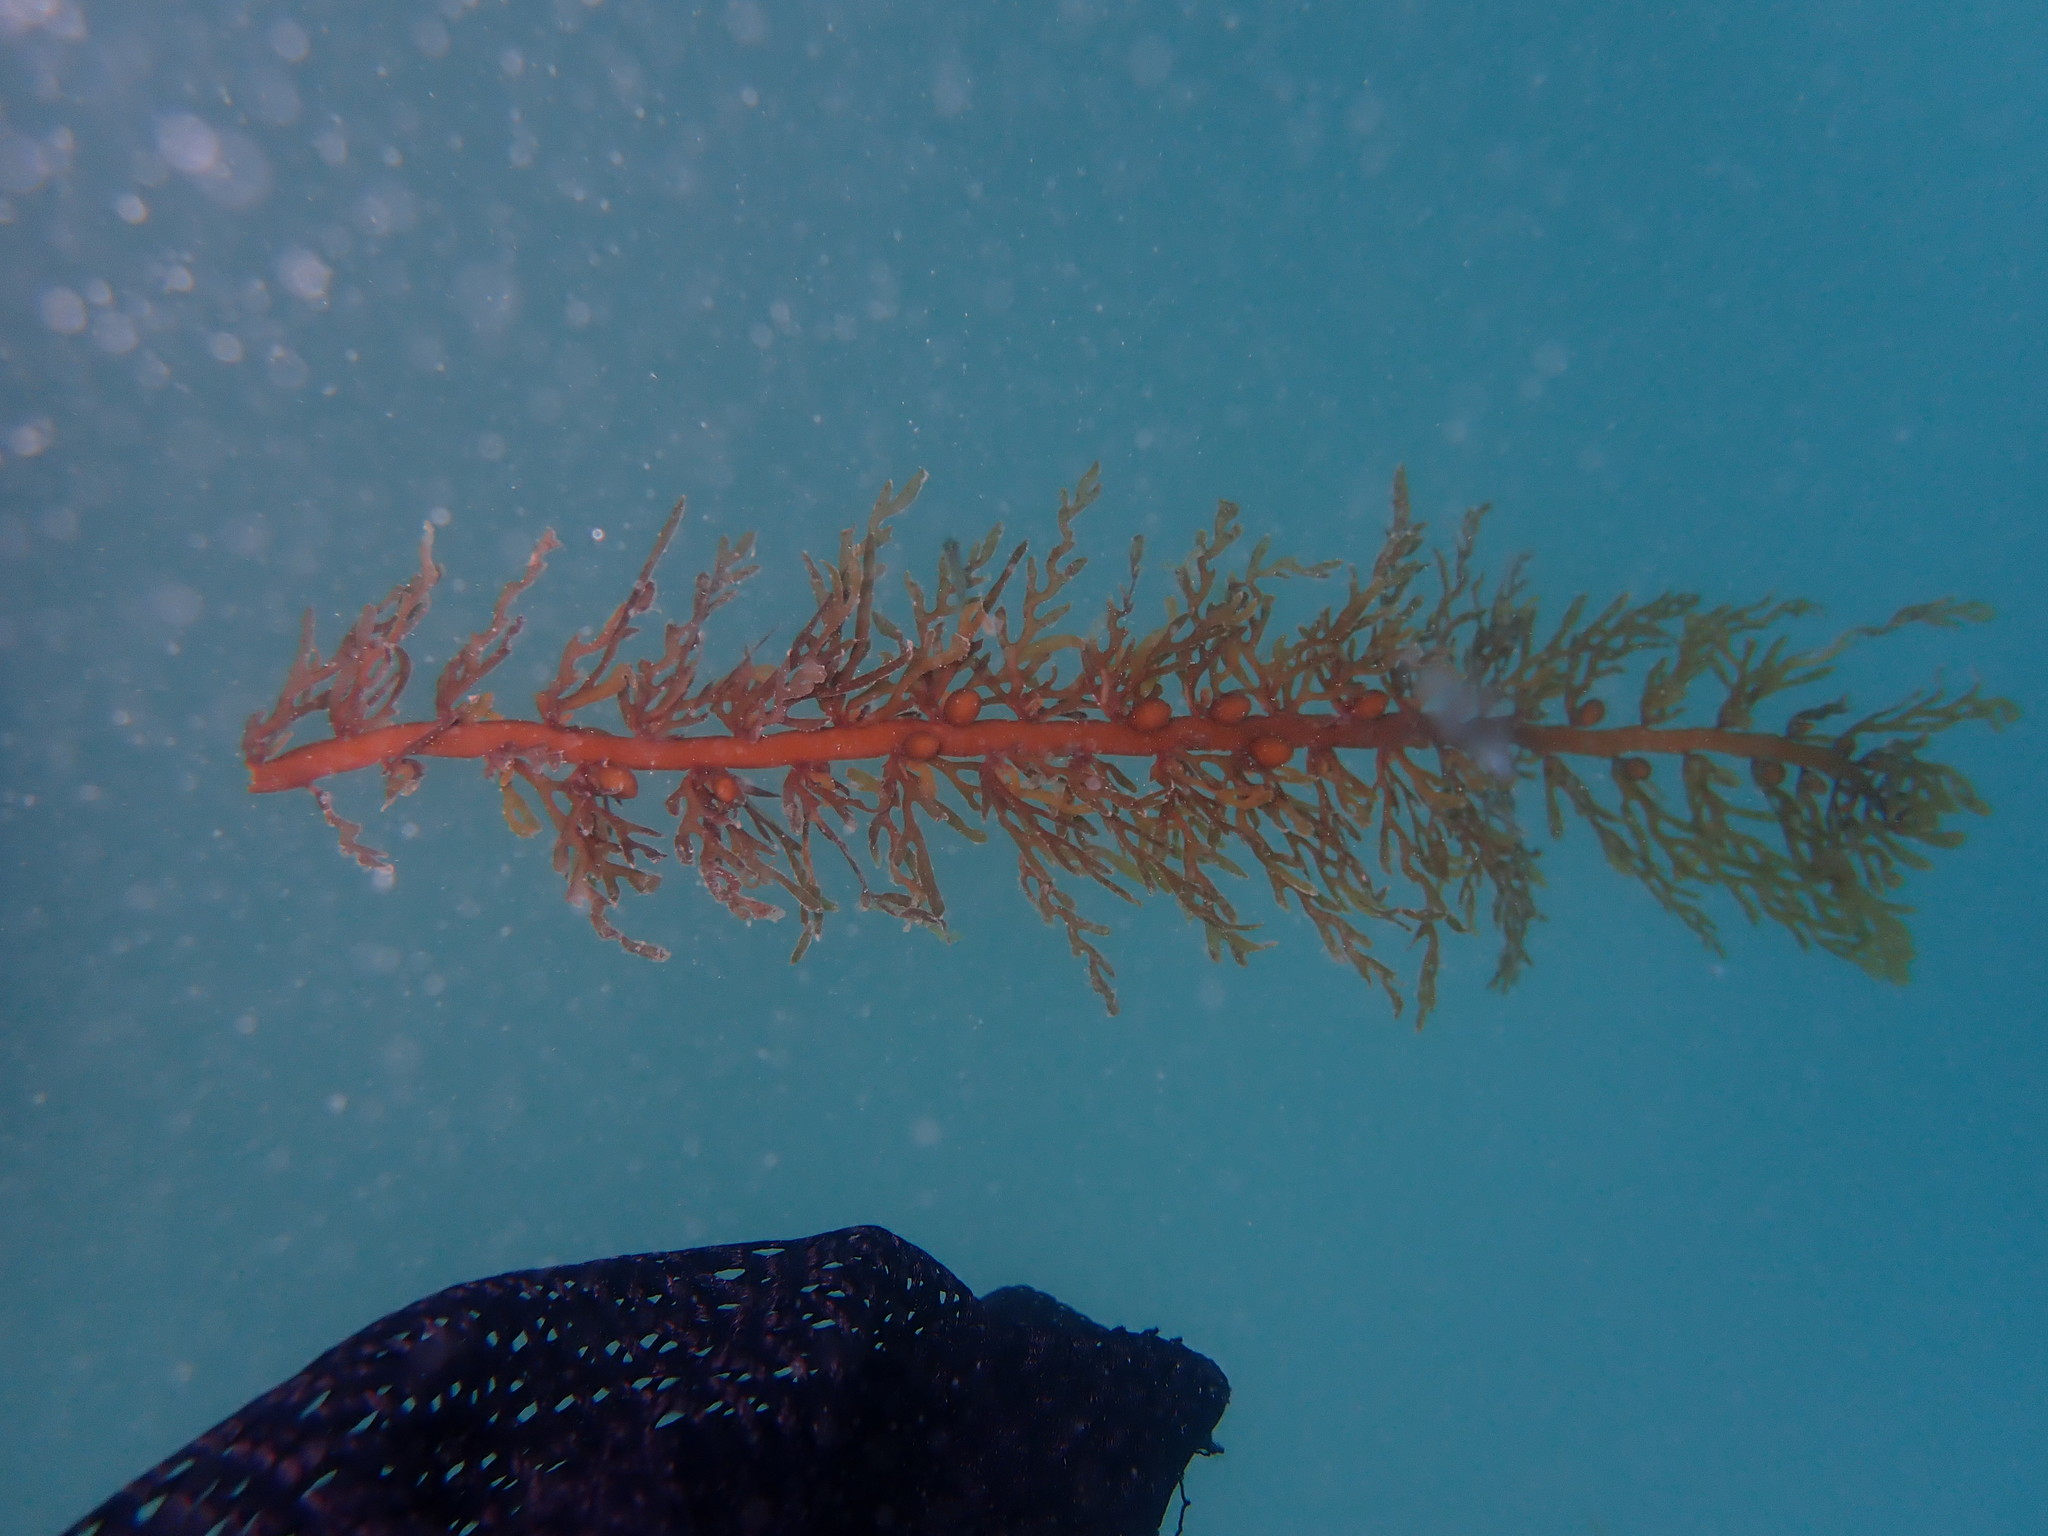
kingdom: Chromista
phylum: Ochrophyta
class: Phaeophyceae
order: Fucales
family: Sargassaceae
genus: Carpophyllum
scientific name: Carpophyllum plumosum
